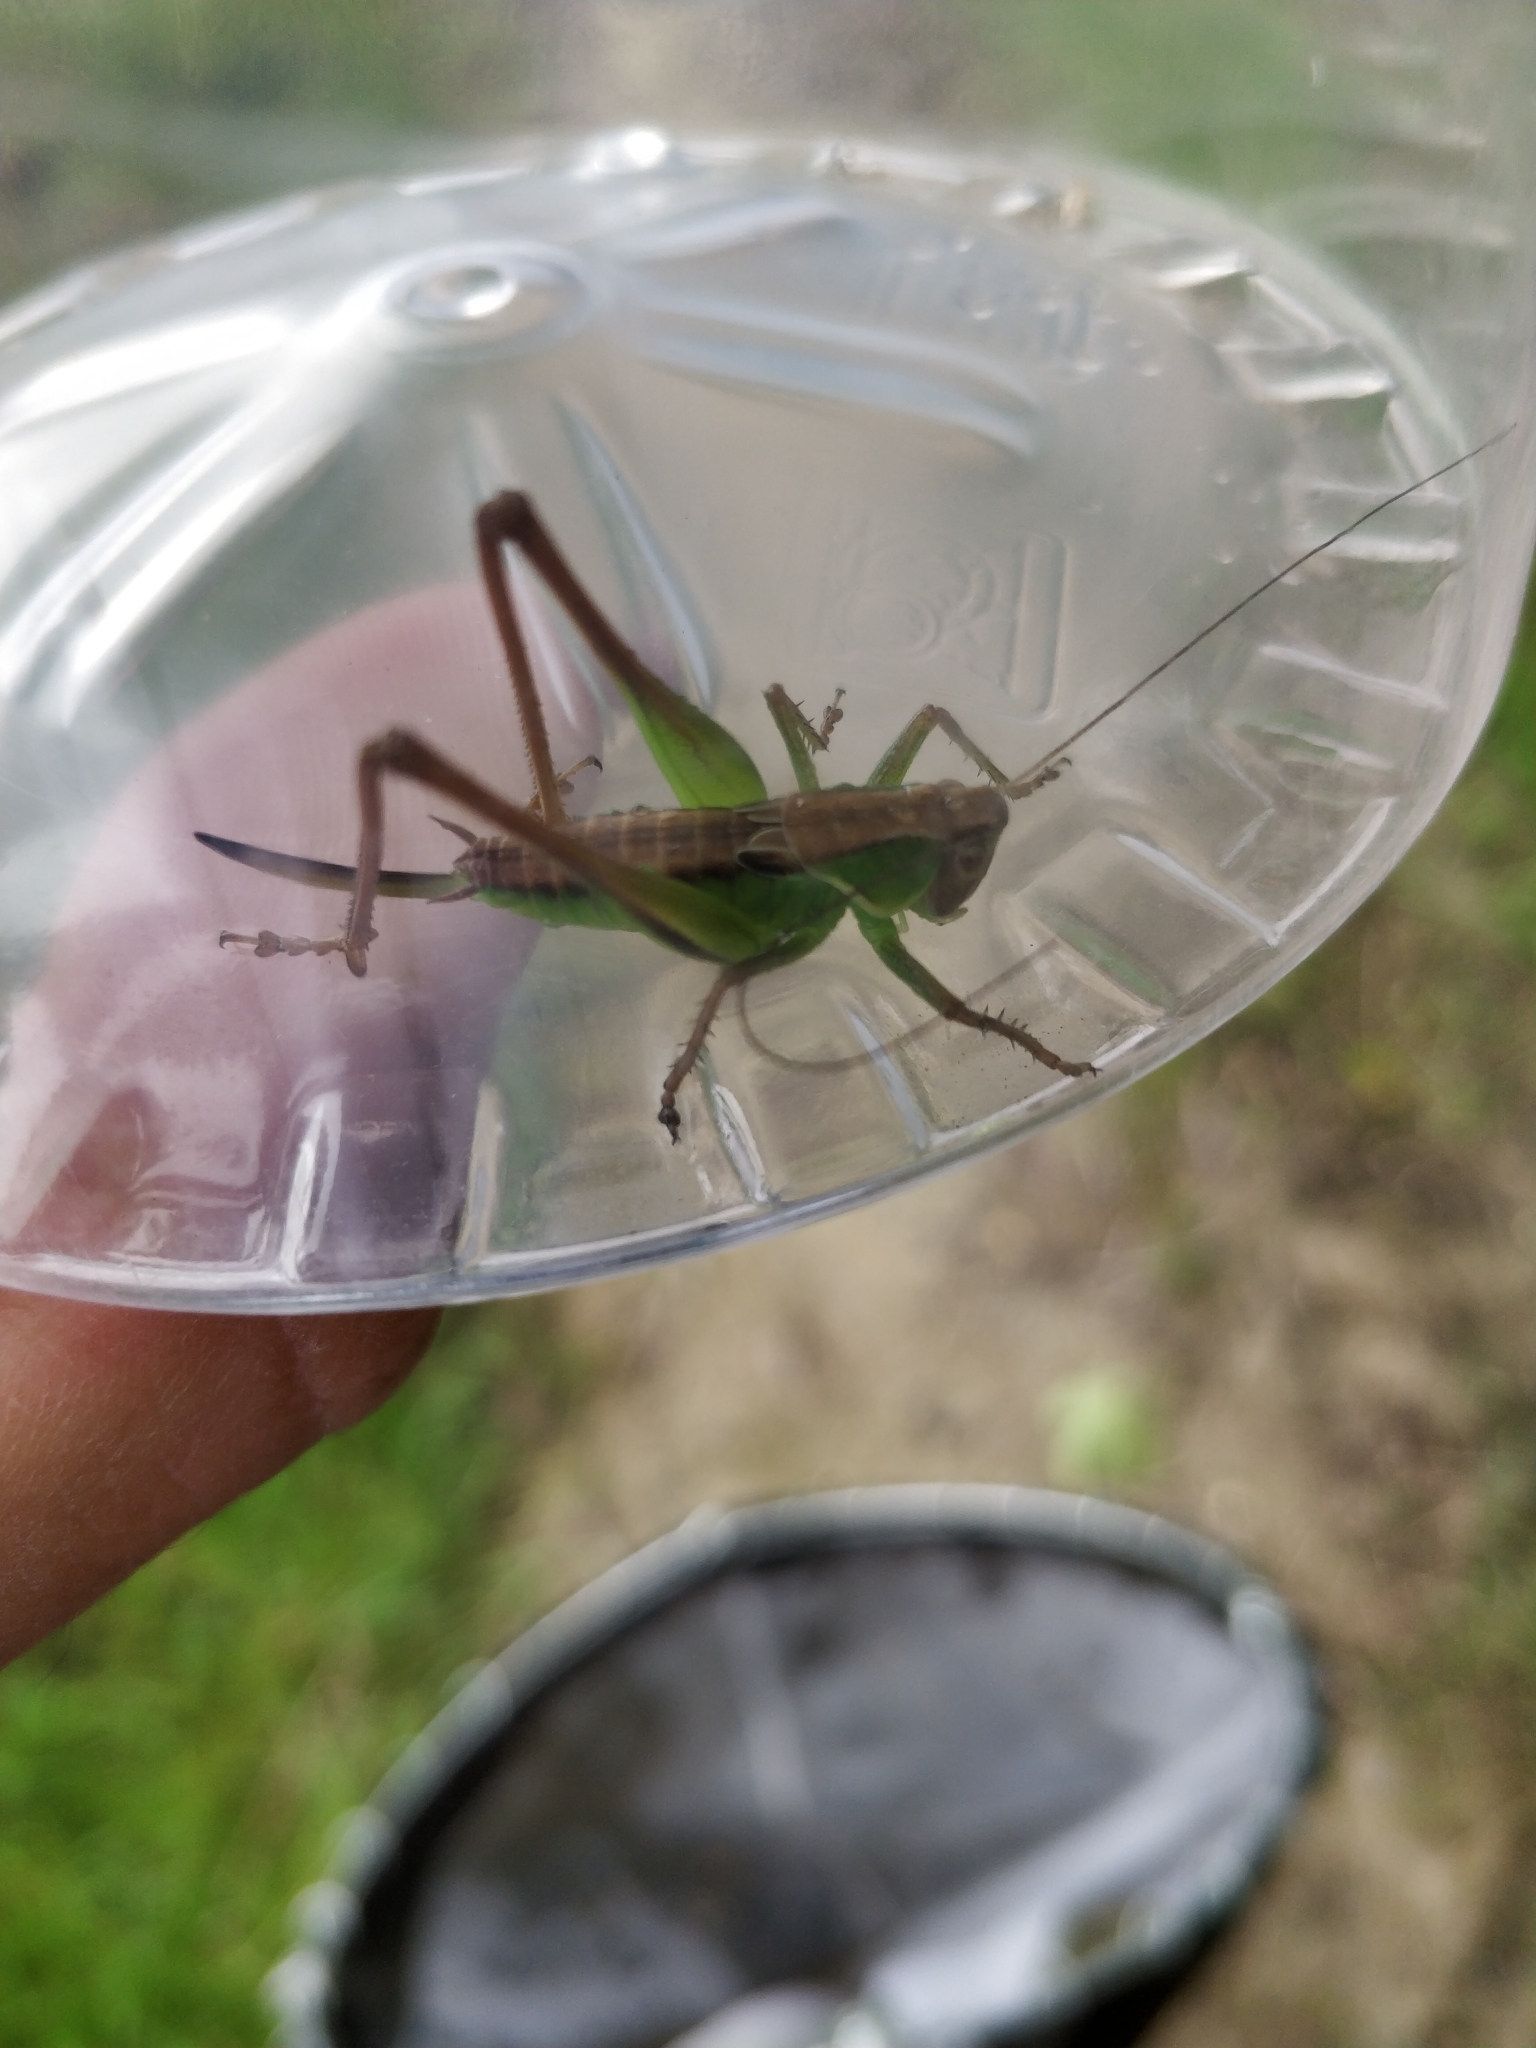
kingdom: Animalia
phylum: Arthropoda
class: Insecta
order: Orthoptera
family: Tettigoniidae
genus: Roeseliana
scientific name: Roeseliana roeselii
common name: Roesel's bush cricket
